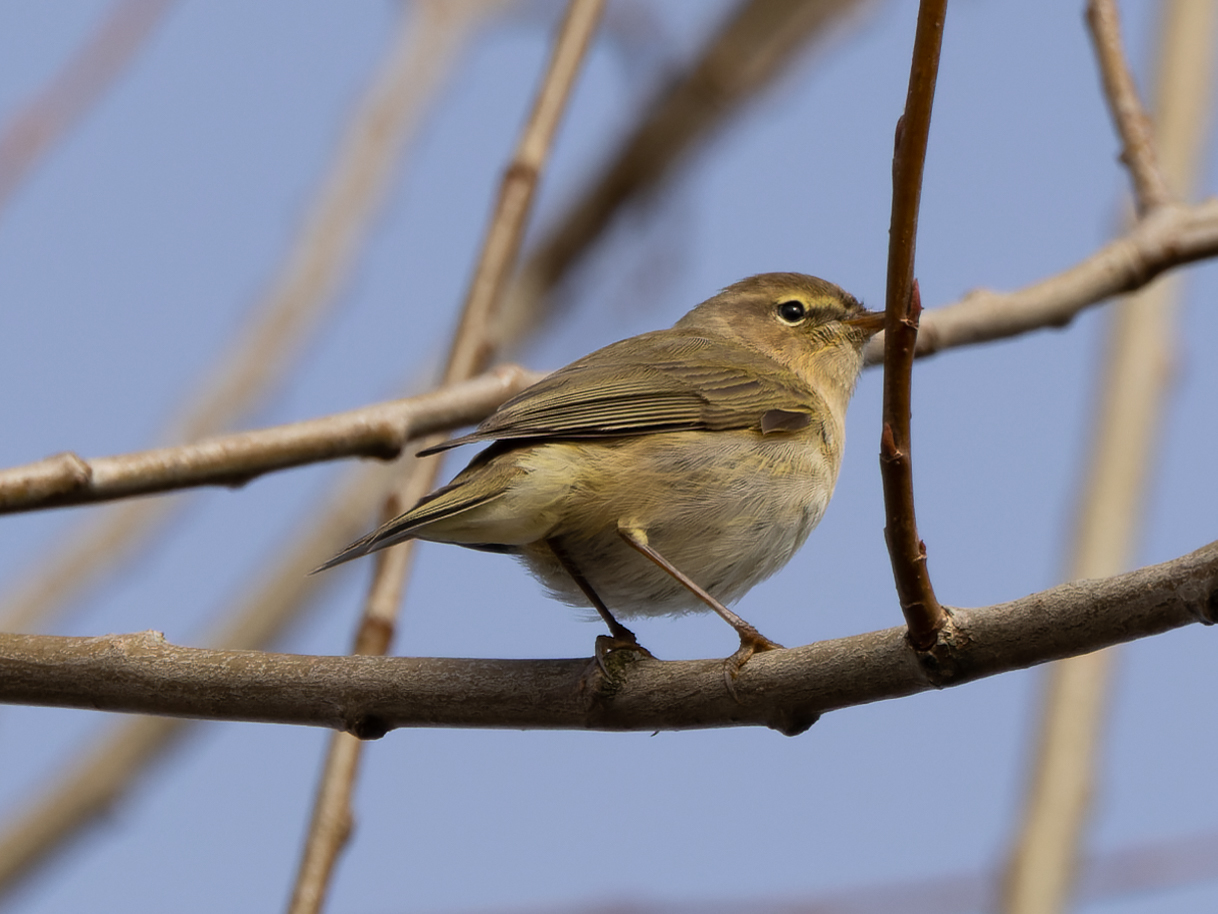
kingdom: Animalia
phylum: Chordata
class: Aves
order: Passeriformes
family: Phylloscopidae
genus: Phylloscopus
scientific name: Phylloscopus collybita
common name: Common chiffchaff
